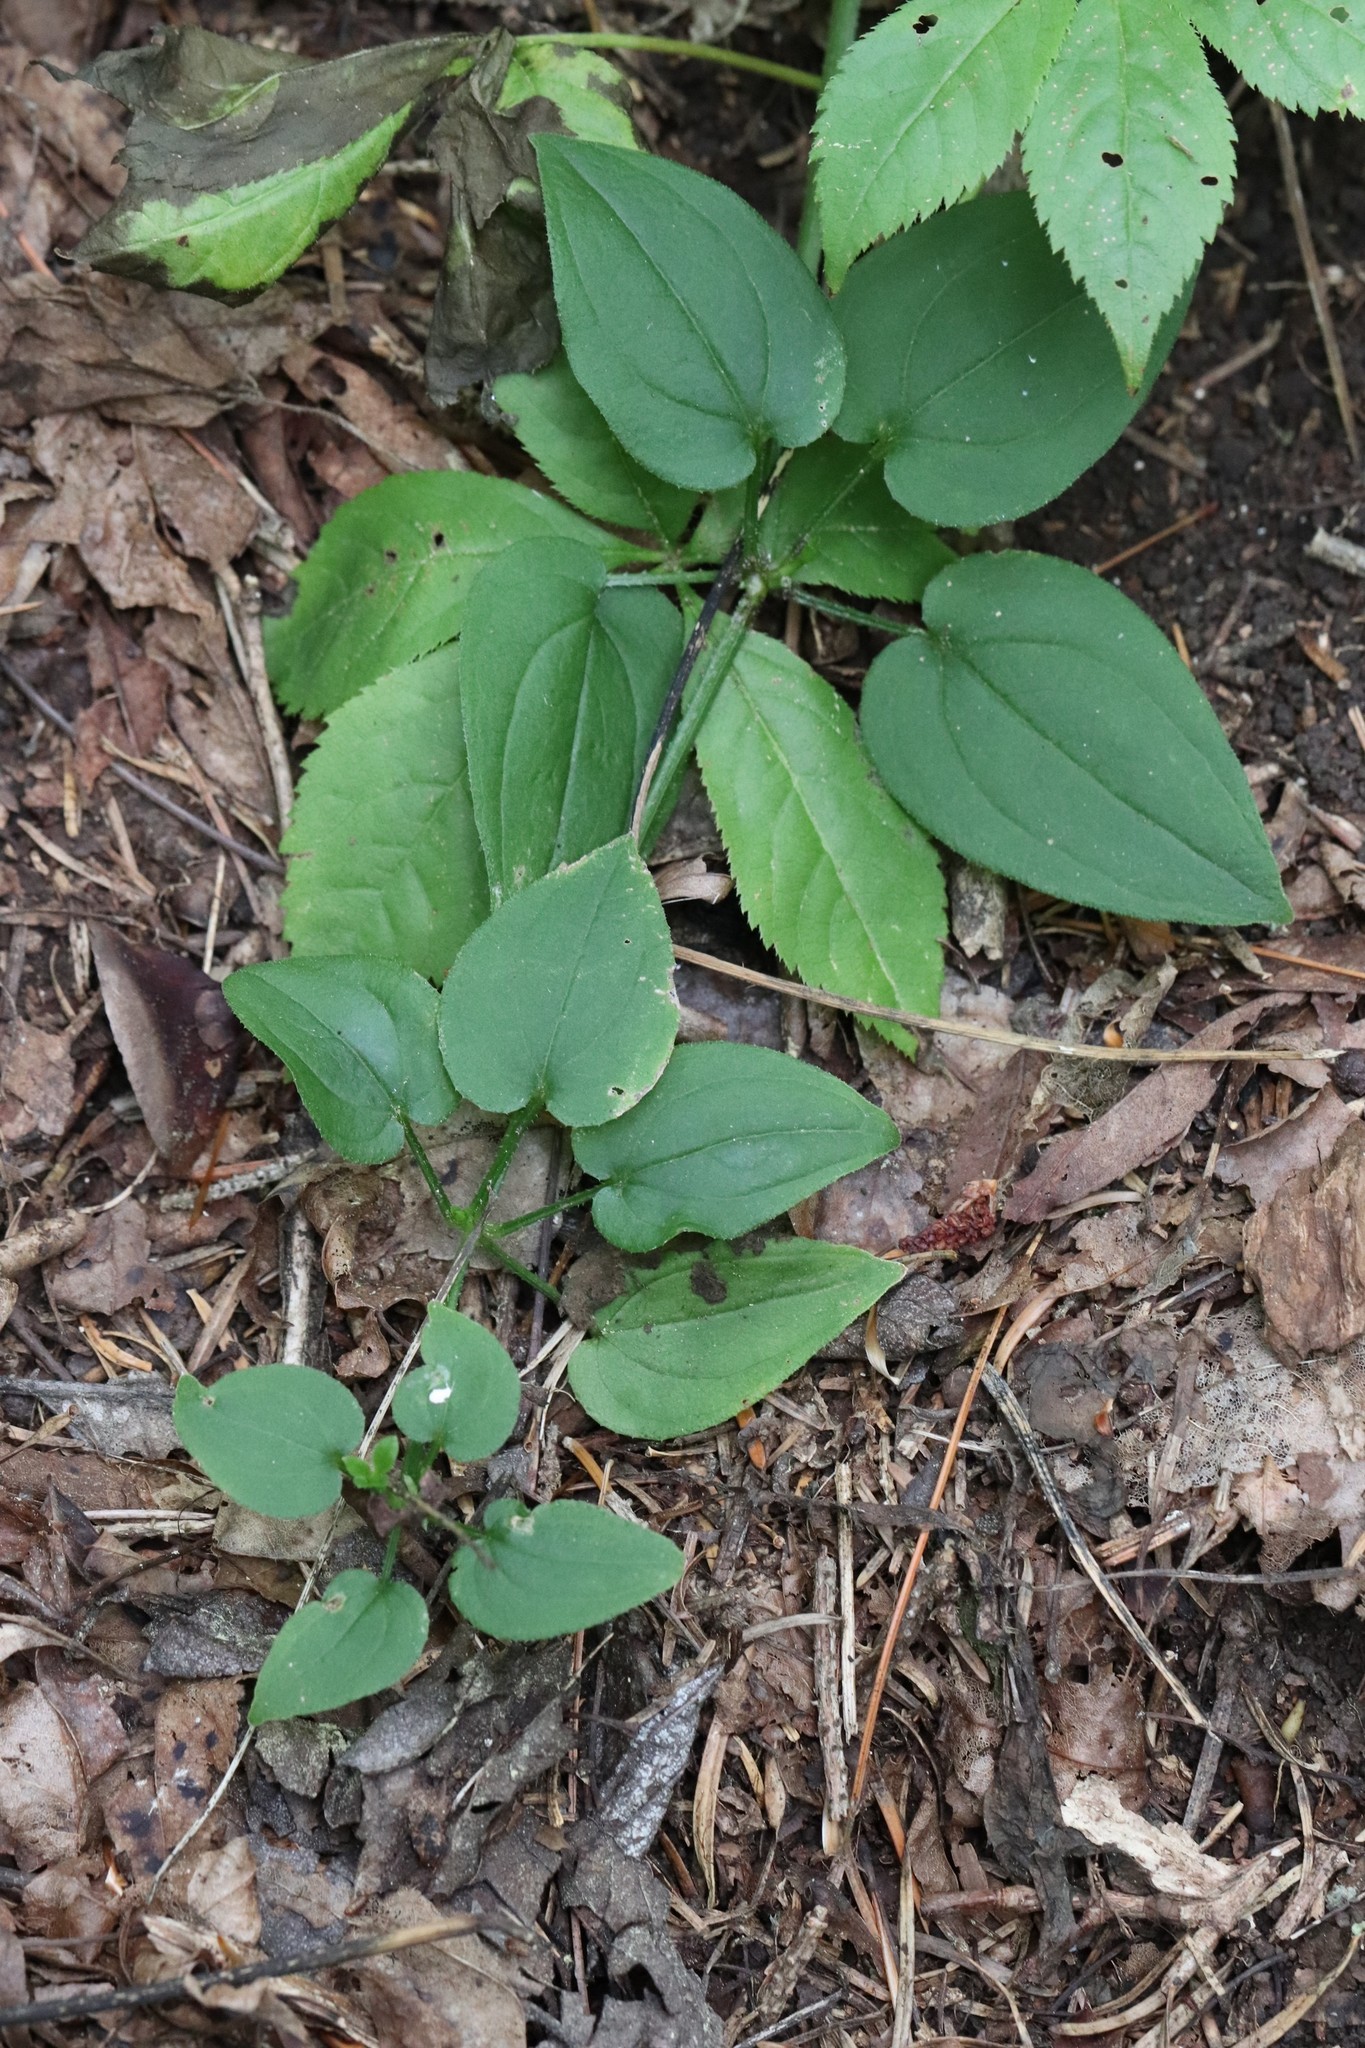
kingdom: Plantae
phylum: Tracheophyta
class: Magnoliopsida
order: Gentianales
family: Rubiaceae
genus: Rubia
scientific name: Rubia cordifolia
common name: Indian madder
